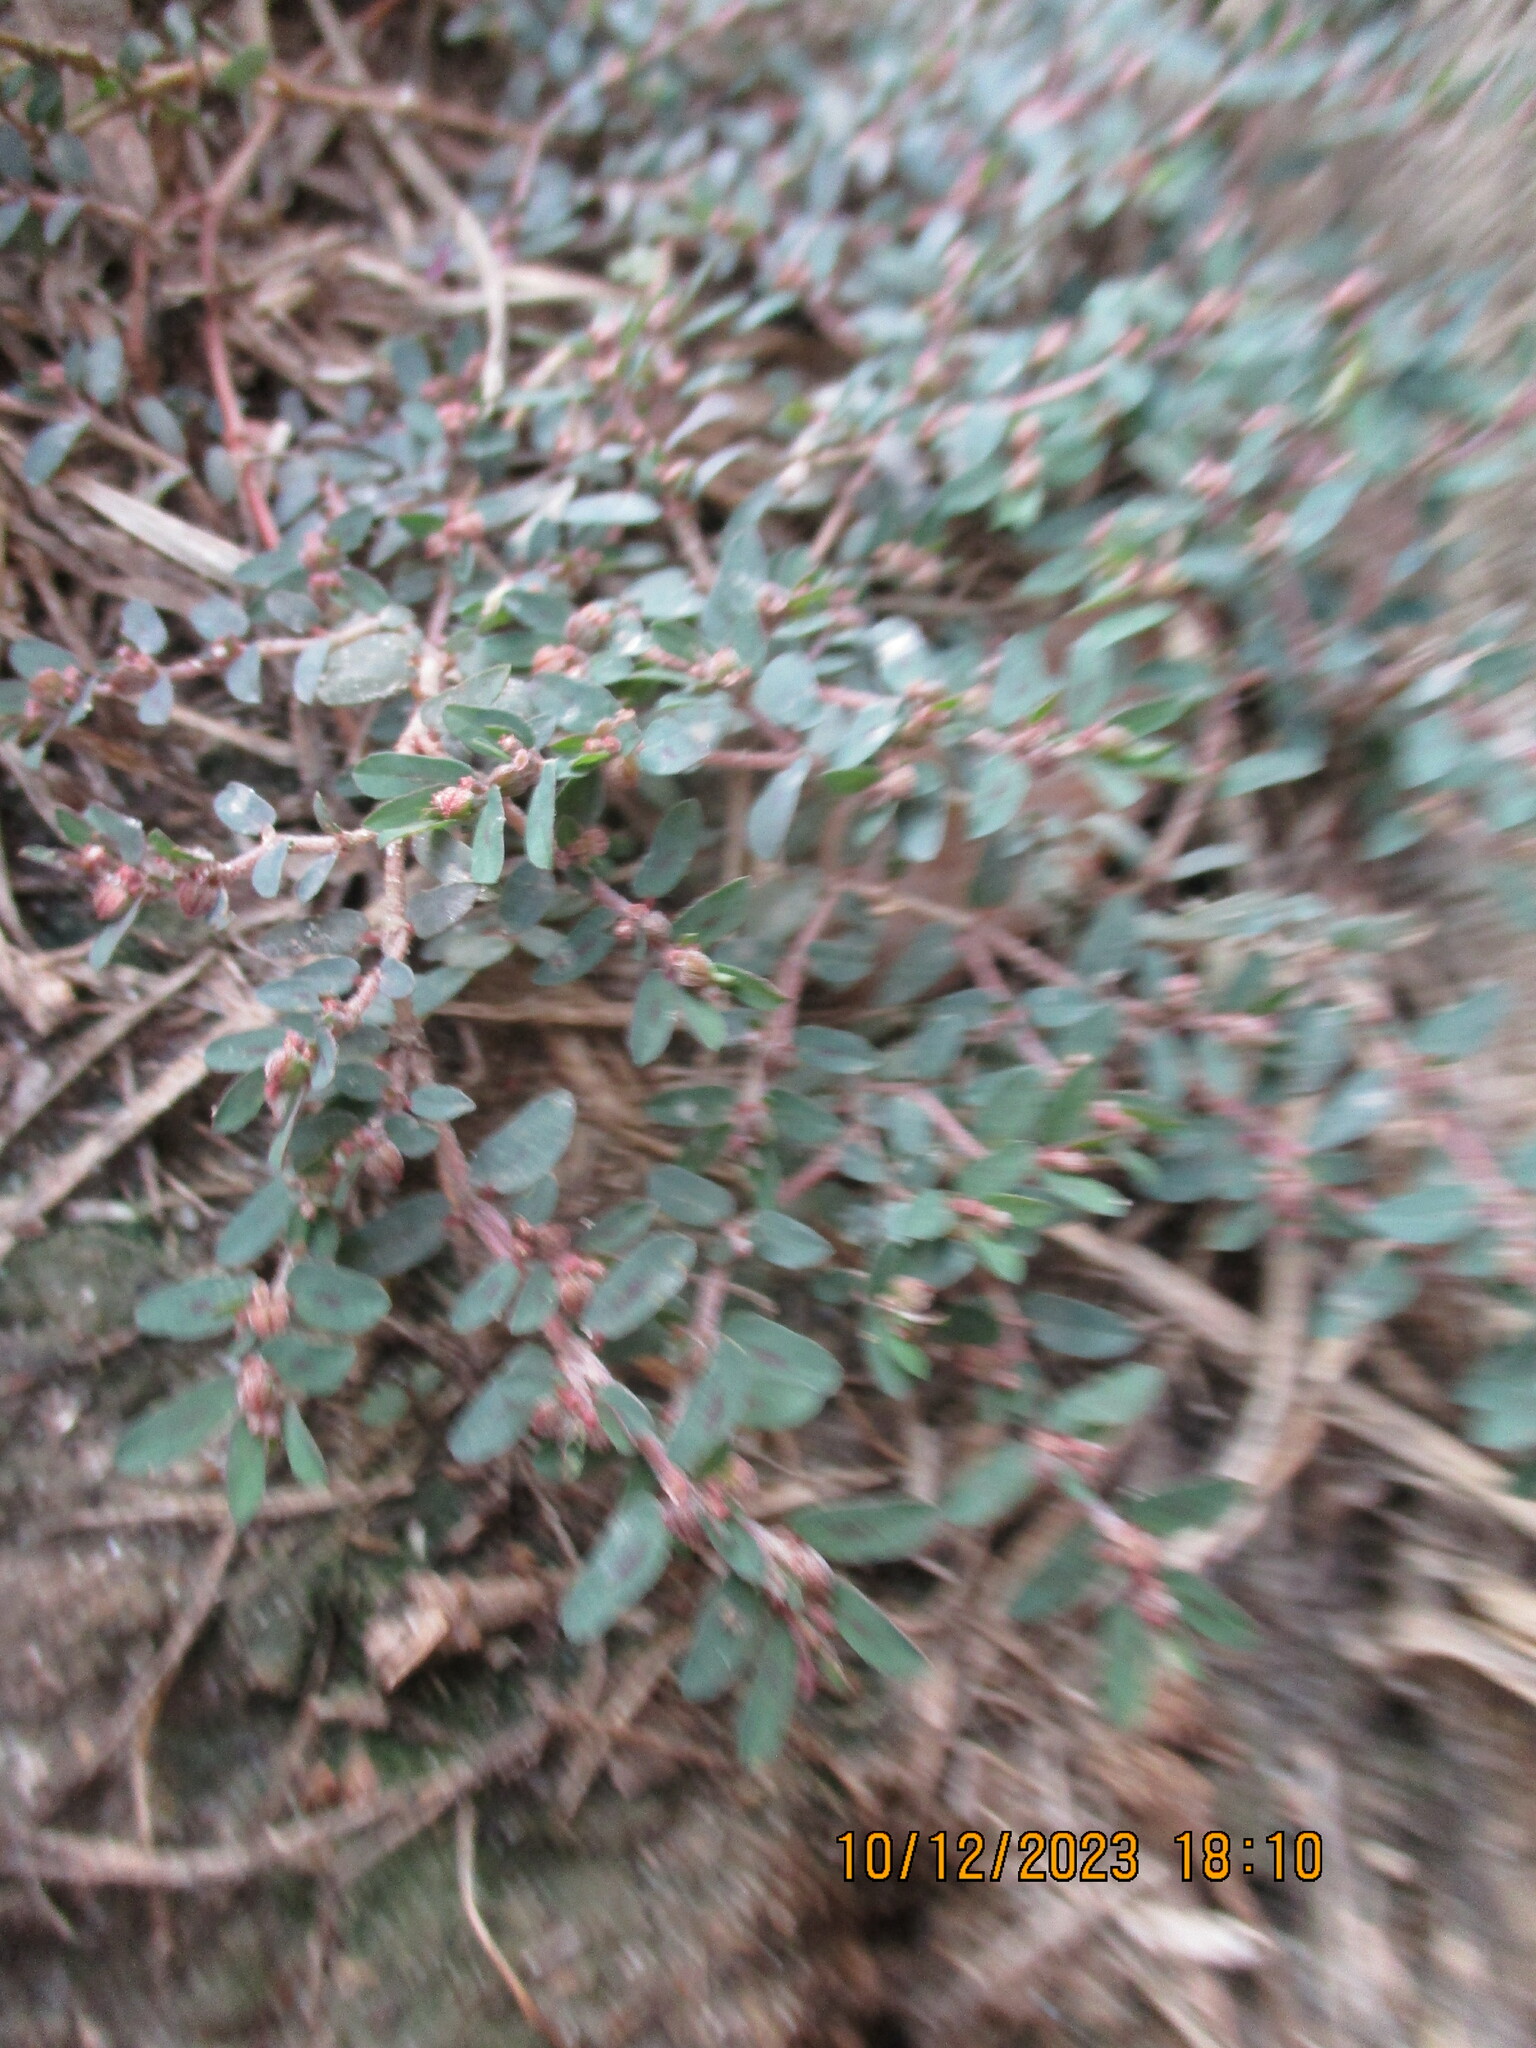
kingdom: Plantae
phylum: Tracheophyta
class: Magnoliopsida
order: Malpighiales
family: Euphorbiaceae
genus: Euphorbia
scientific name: Euphorbia maculata
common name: Spotted spurge
